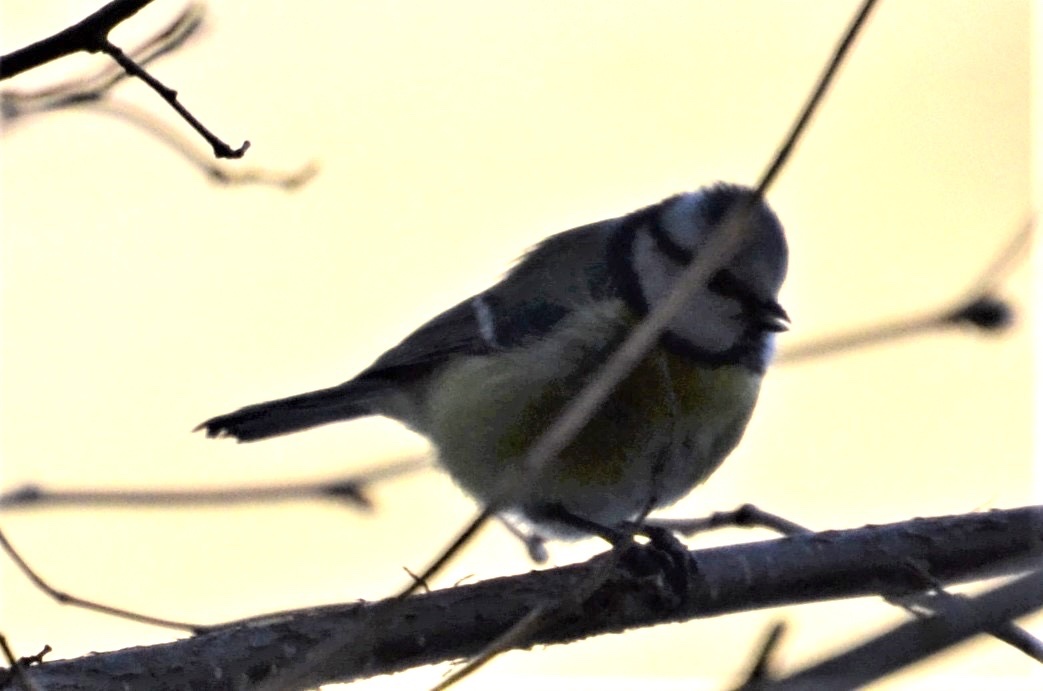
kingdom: Animalia
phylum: Chordata
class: Aves
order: Passeriformes
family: Paridae
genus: Cyanistes
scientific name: Cyanistes caeruleus
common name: Eurasian blue tit
